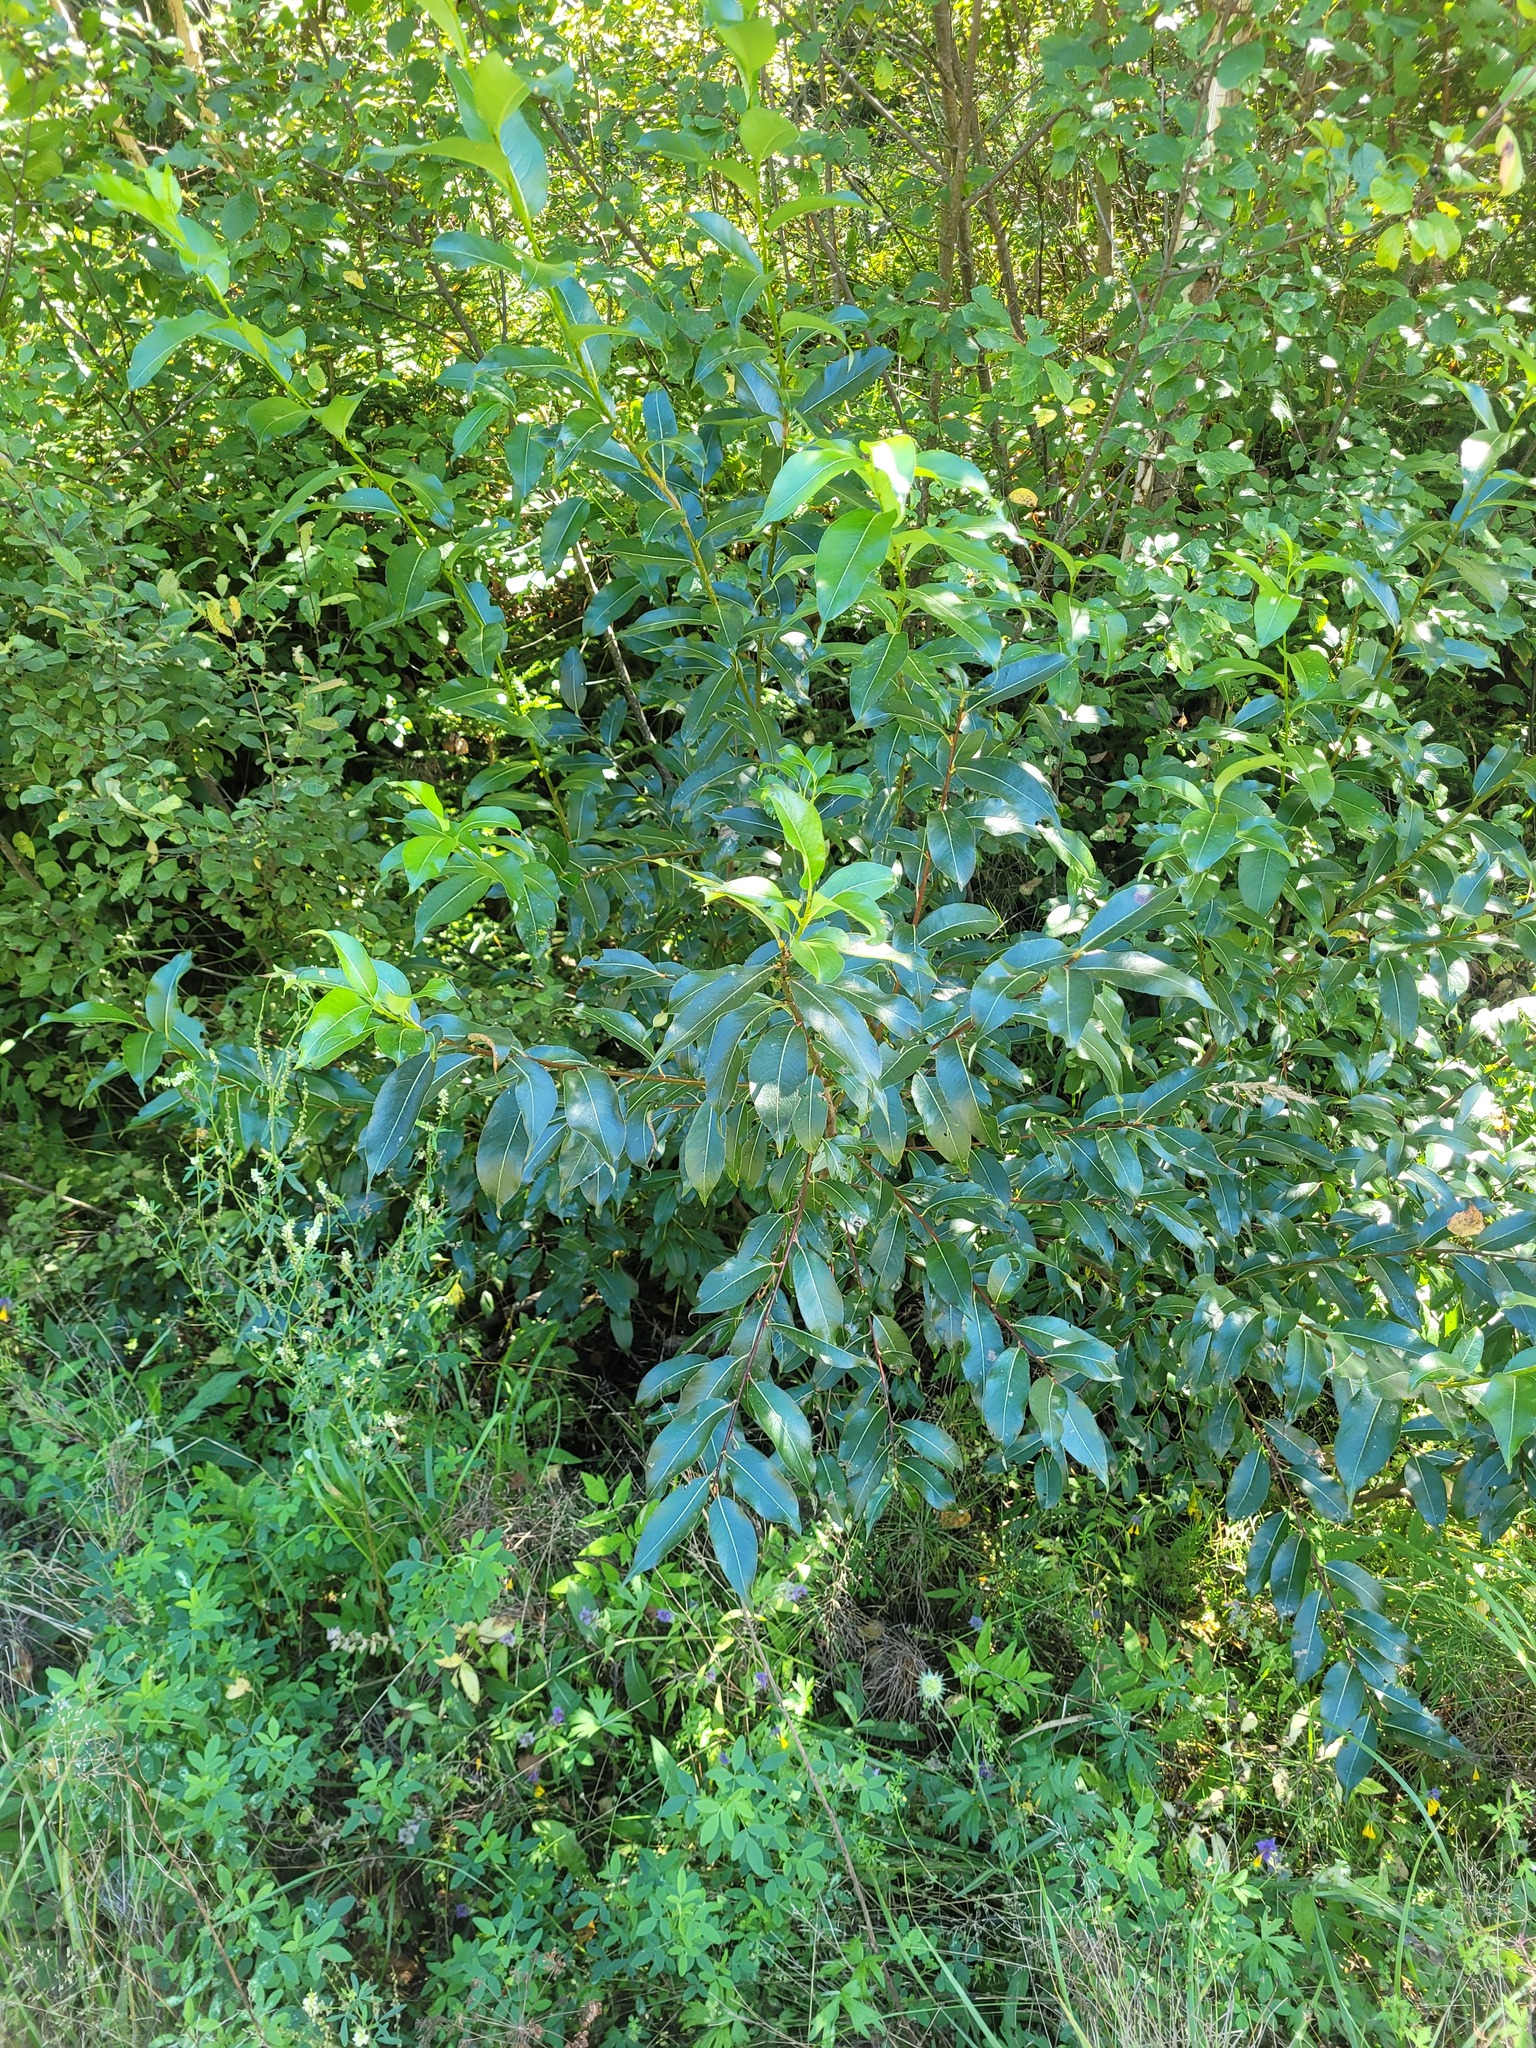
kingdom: Plantae
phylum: Tracheophyta
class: Magnoliopsida
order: Malpighiales
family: Salicaceae
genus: Salix
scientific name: Salix pentandra
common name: Bay willow
